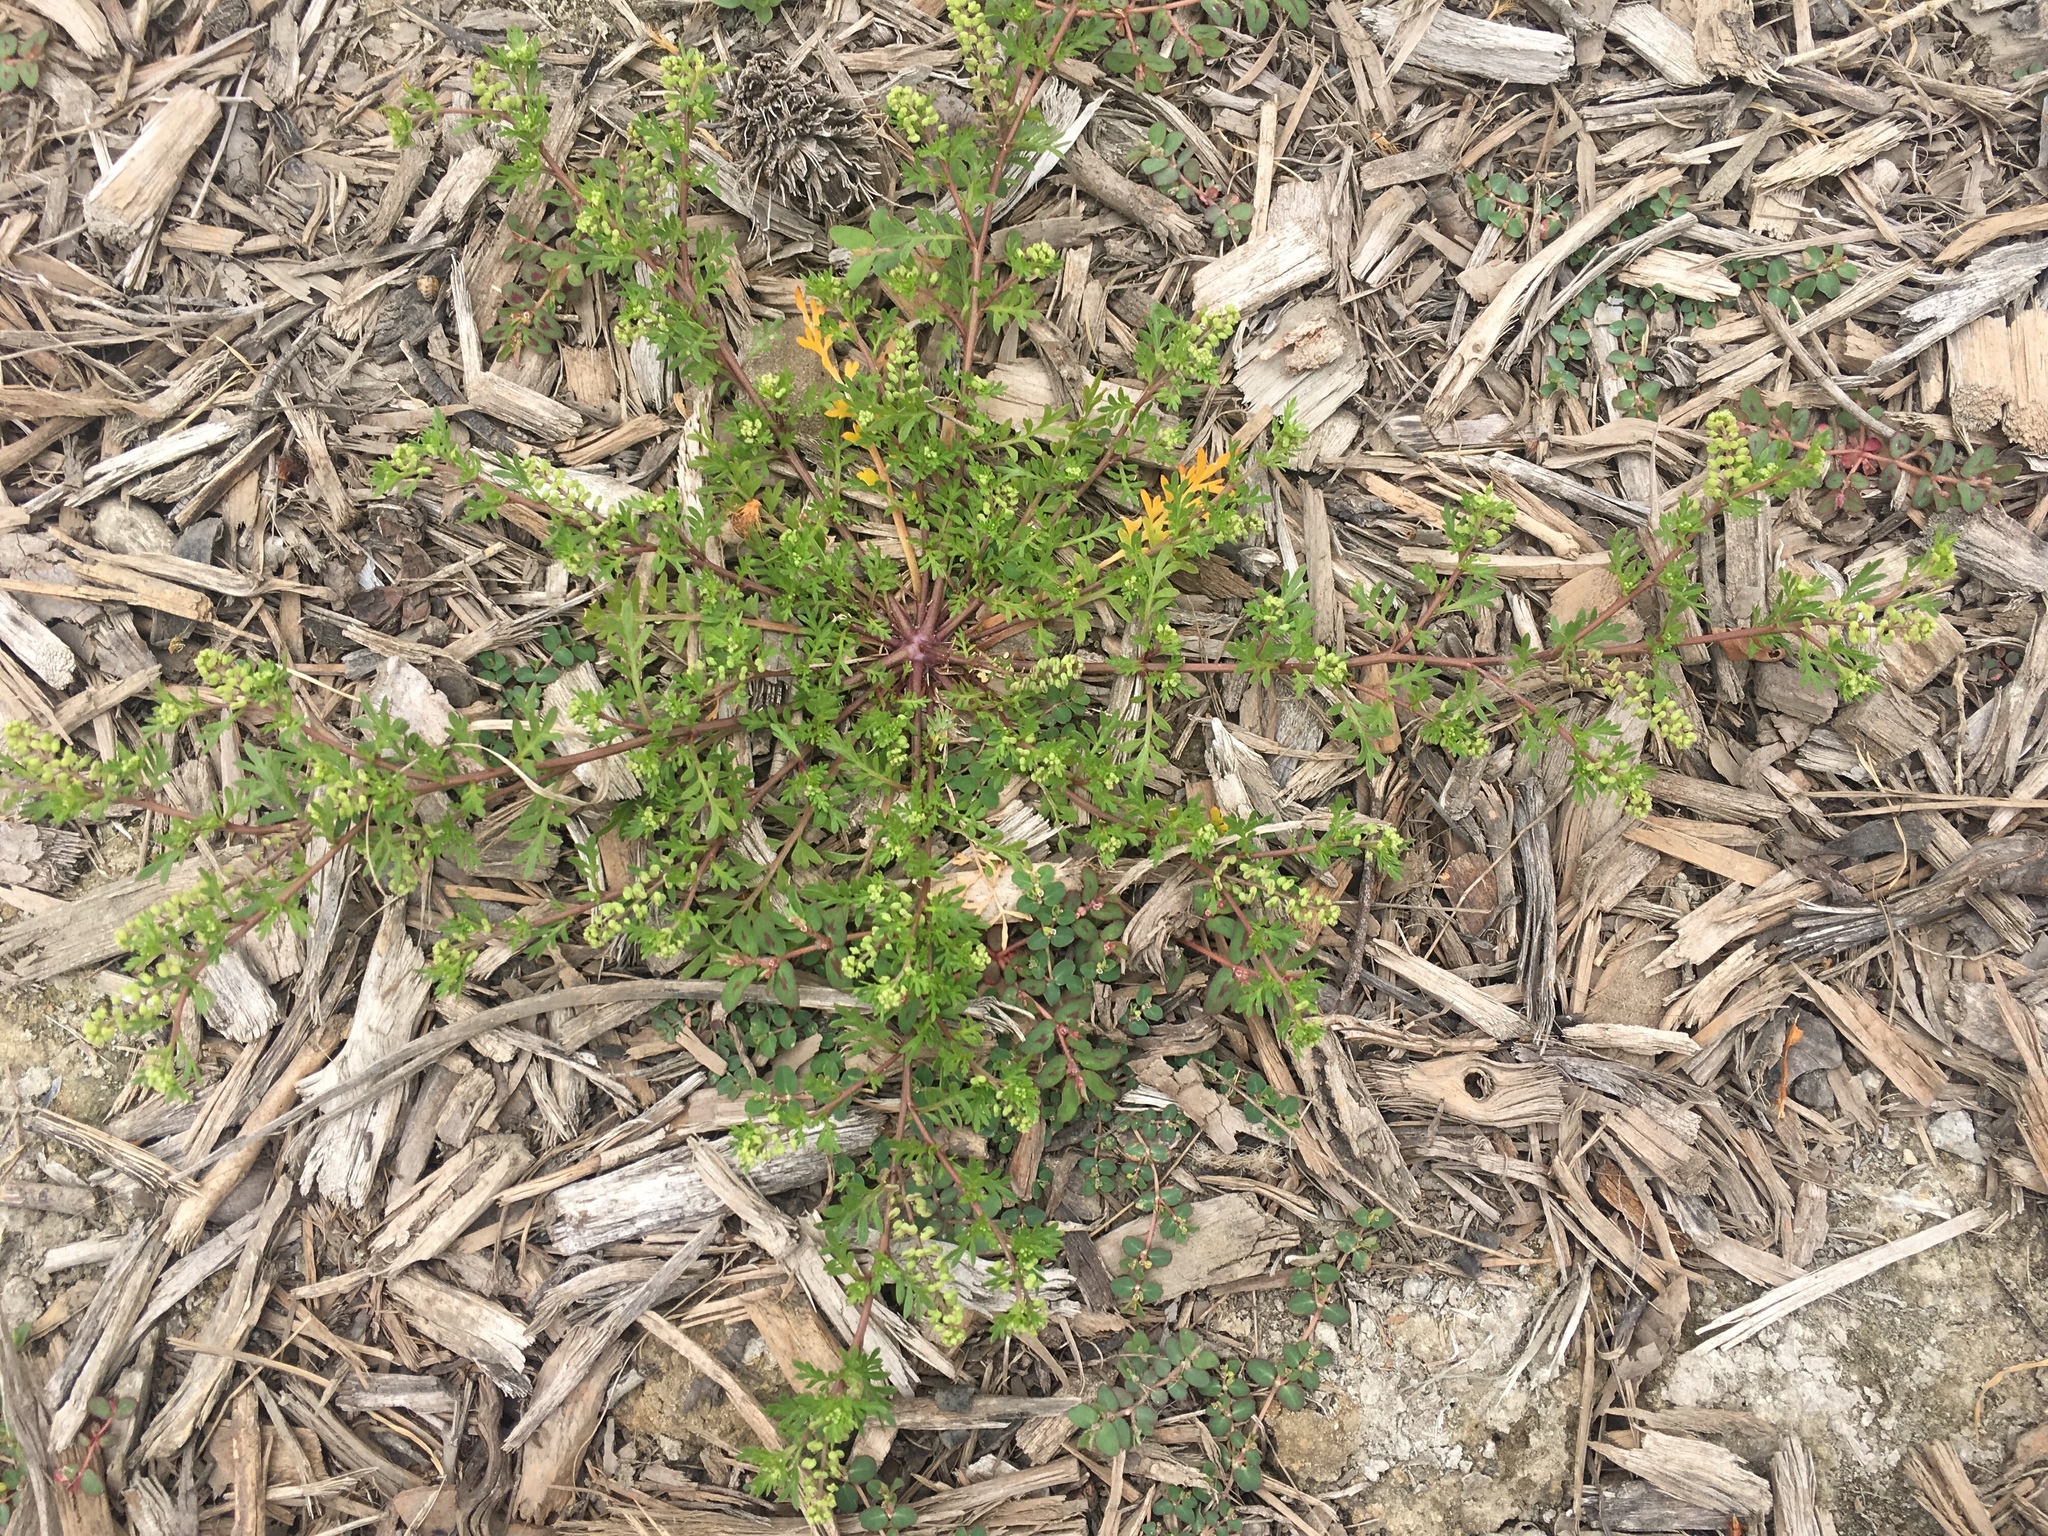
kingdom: Plantae
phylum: Tracheophyta
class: Magnoliopsida
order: Brassicales
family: Brassicaceae
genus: Lepidium
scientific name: Lepidium didymum
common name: Lesser swinecress
